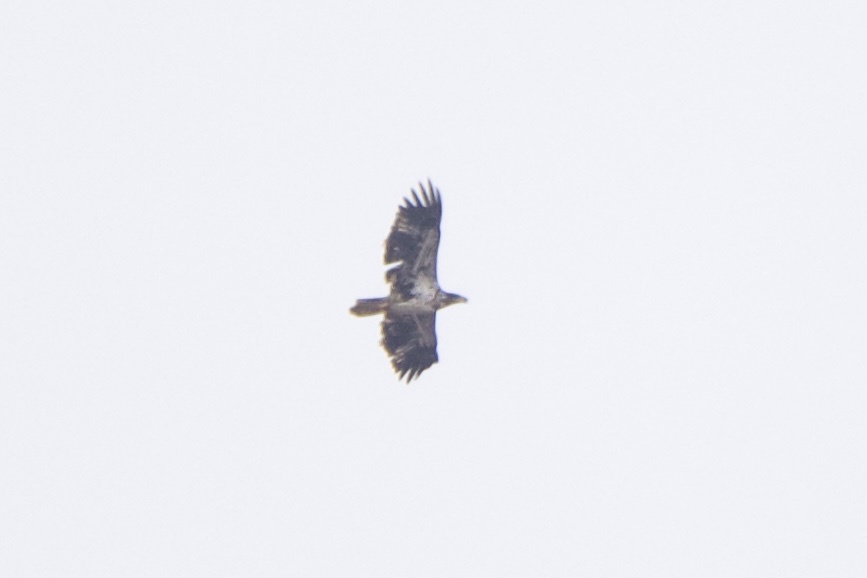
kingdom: Animalia
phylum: Chordata
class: Aves
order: Accipitriformes
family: Accipitridae
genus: Haliaeetus
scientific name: Haliaeetus leucocephalus
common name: Bald eagle
